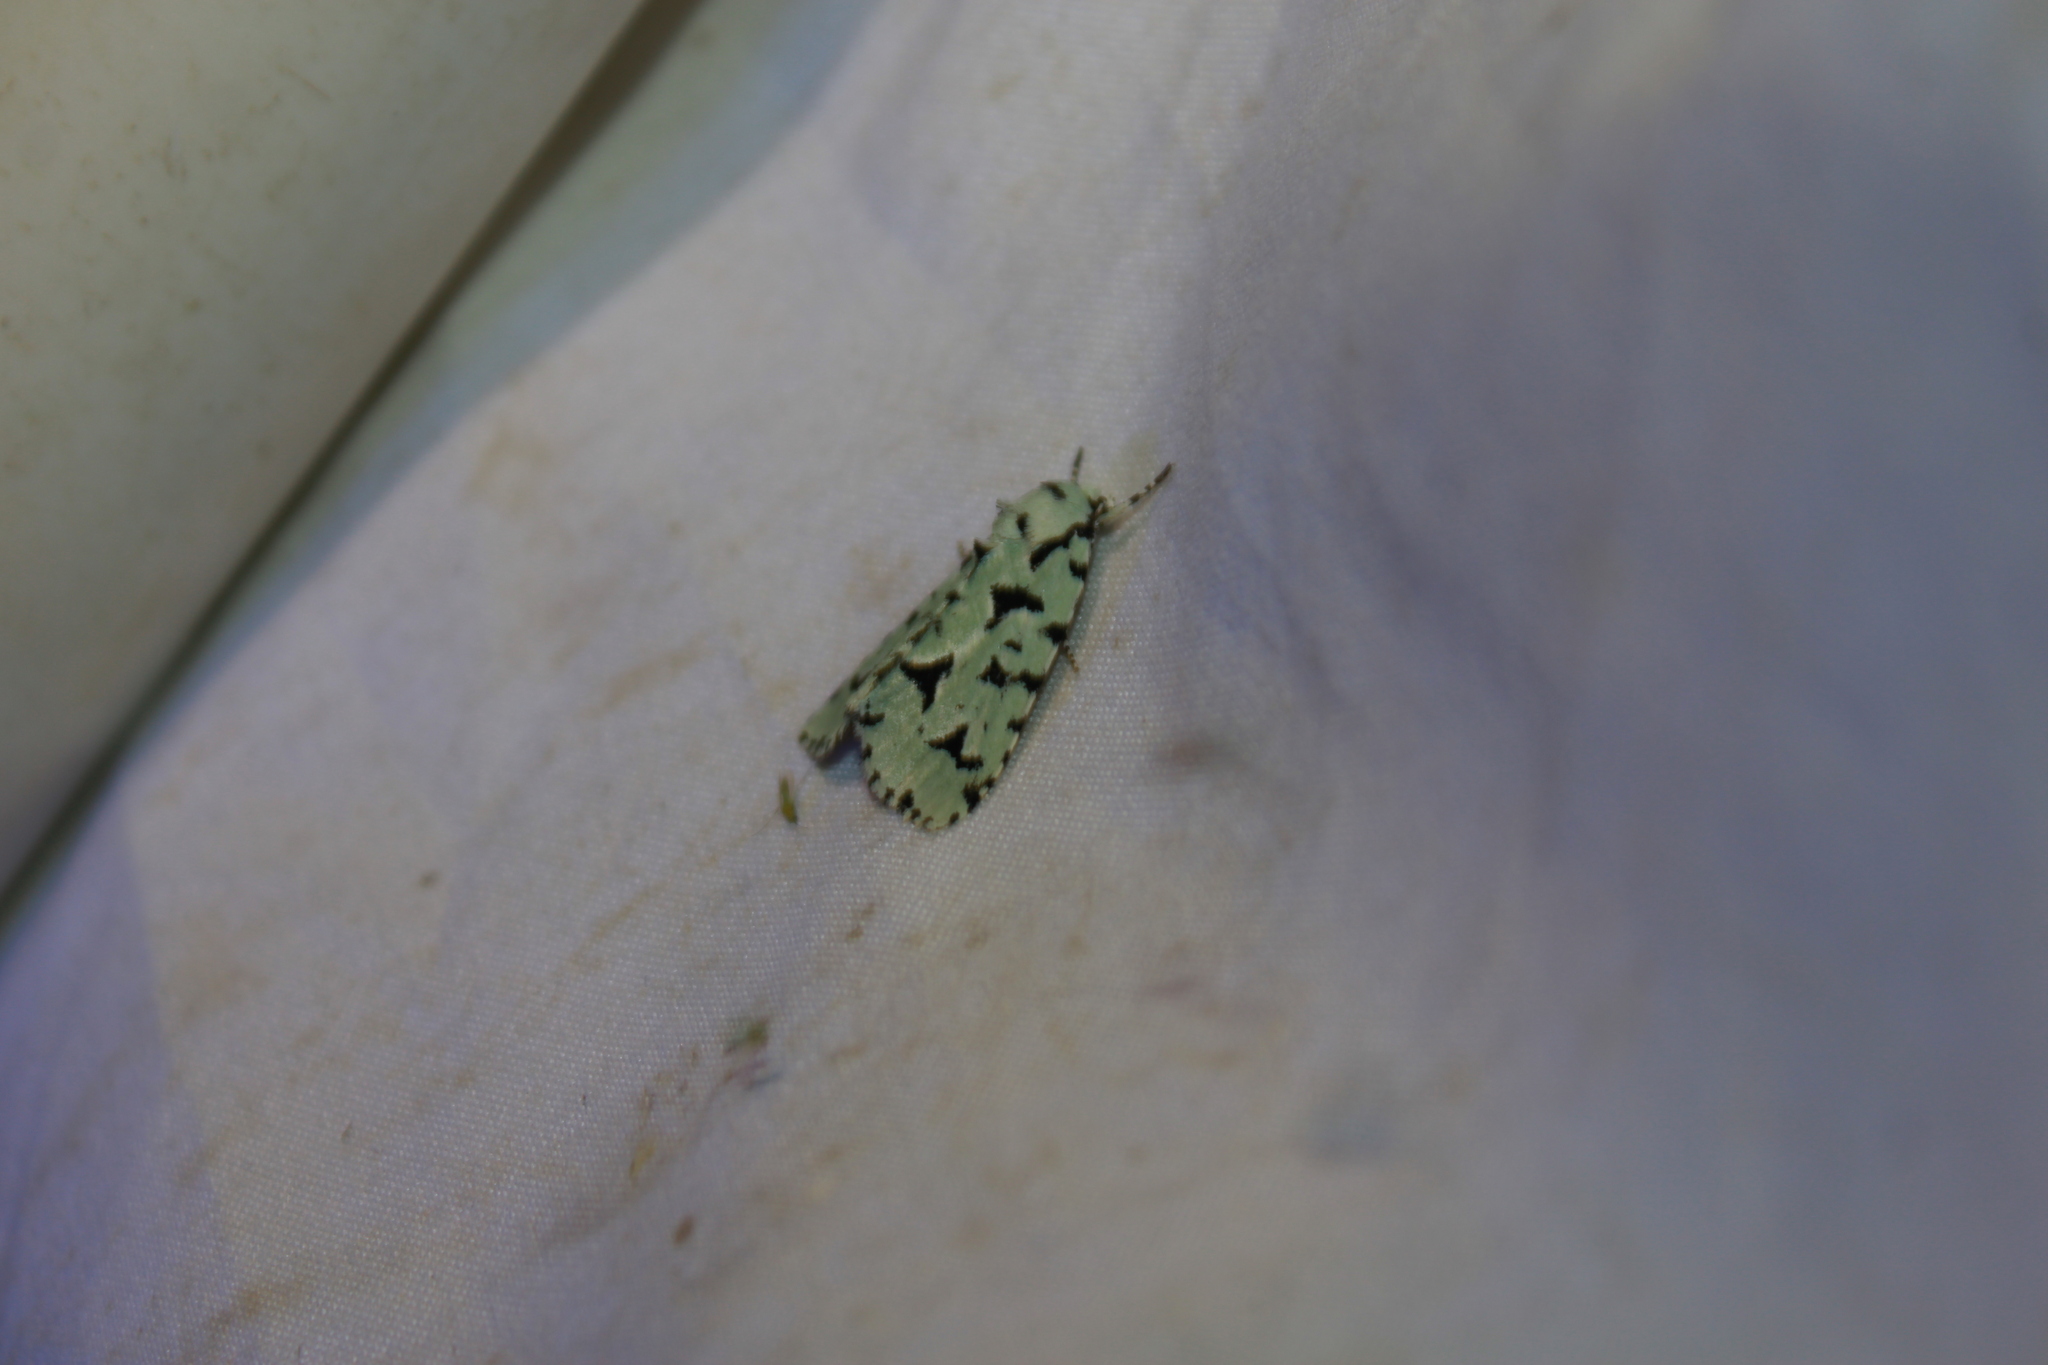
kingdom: Animalia
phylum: Arthropoda
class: Insecta
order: Lepidoptera
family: Noctuidae
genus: Acronicta
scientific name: Acronicta fallax
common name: Green marvel
